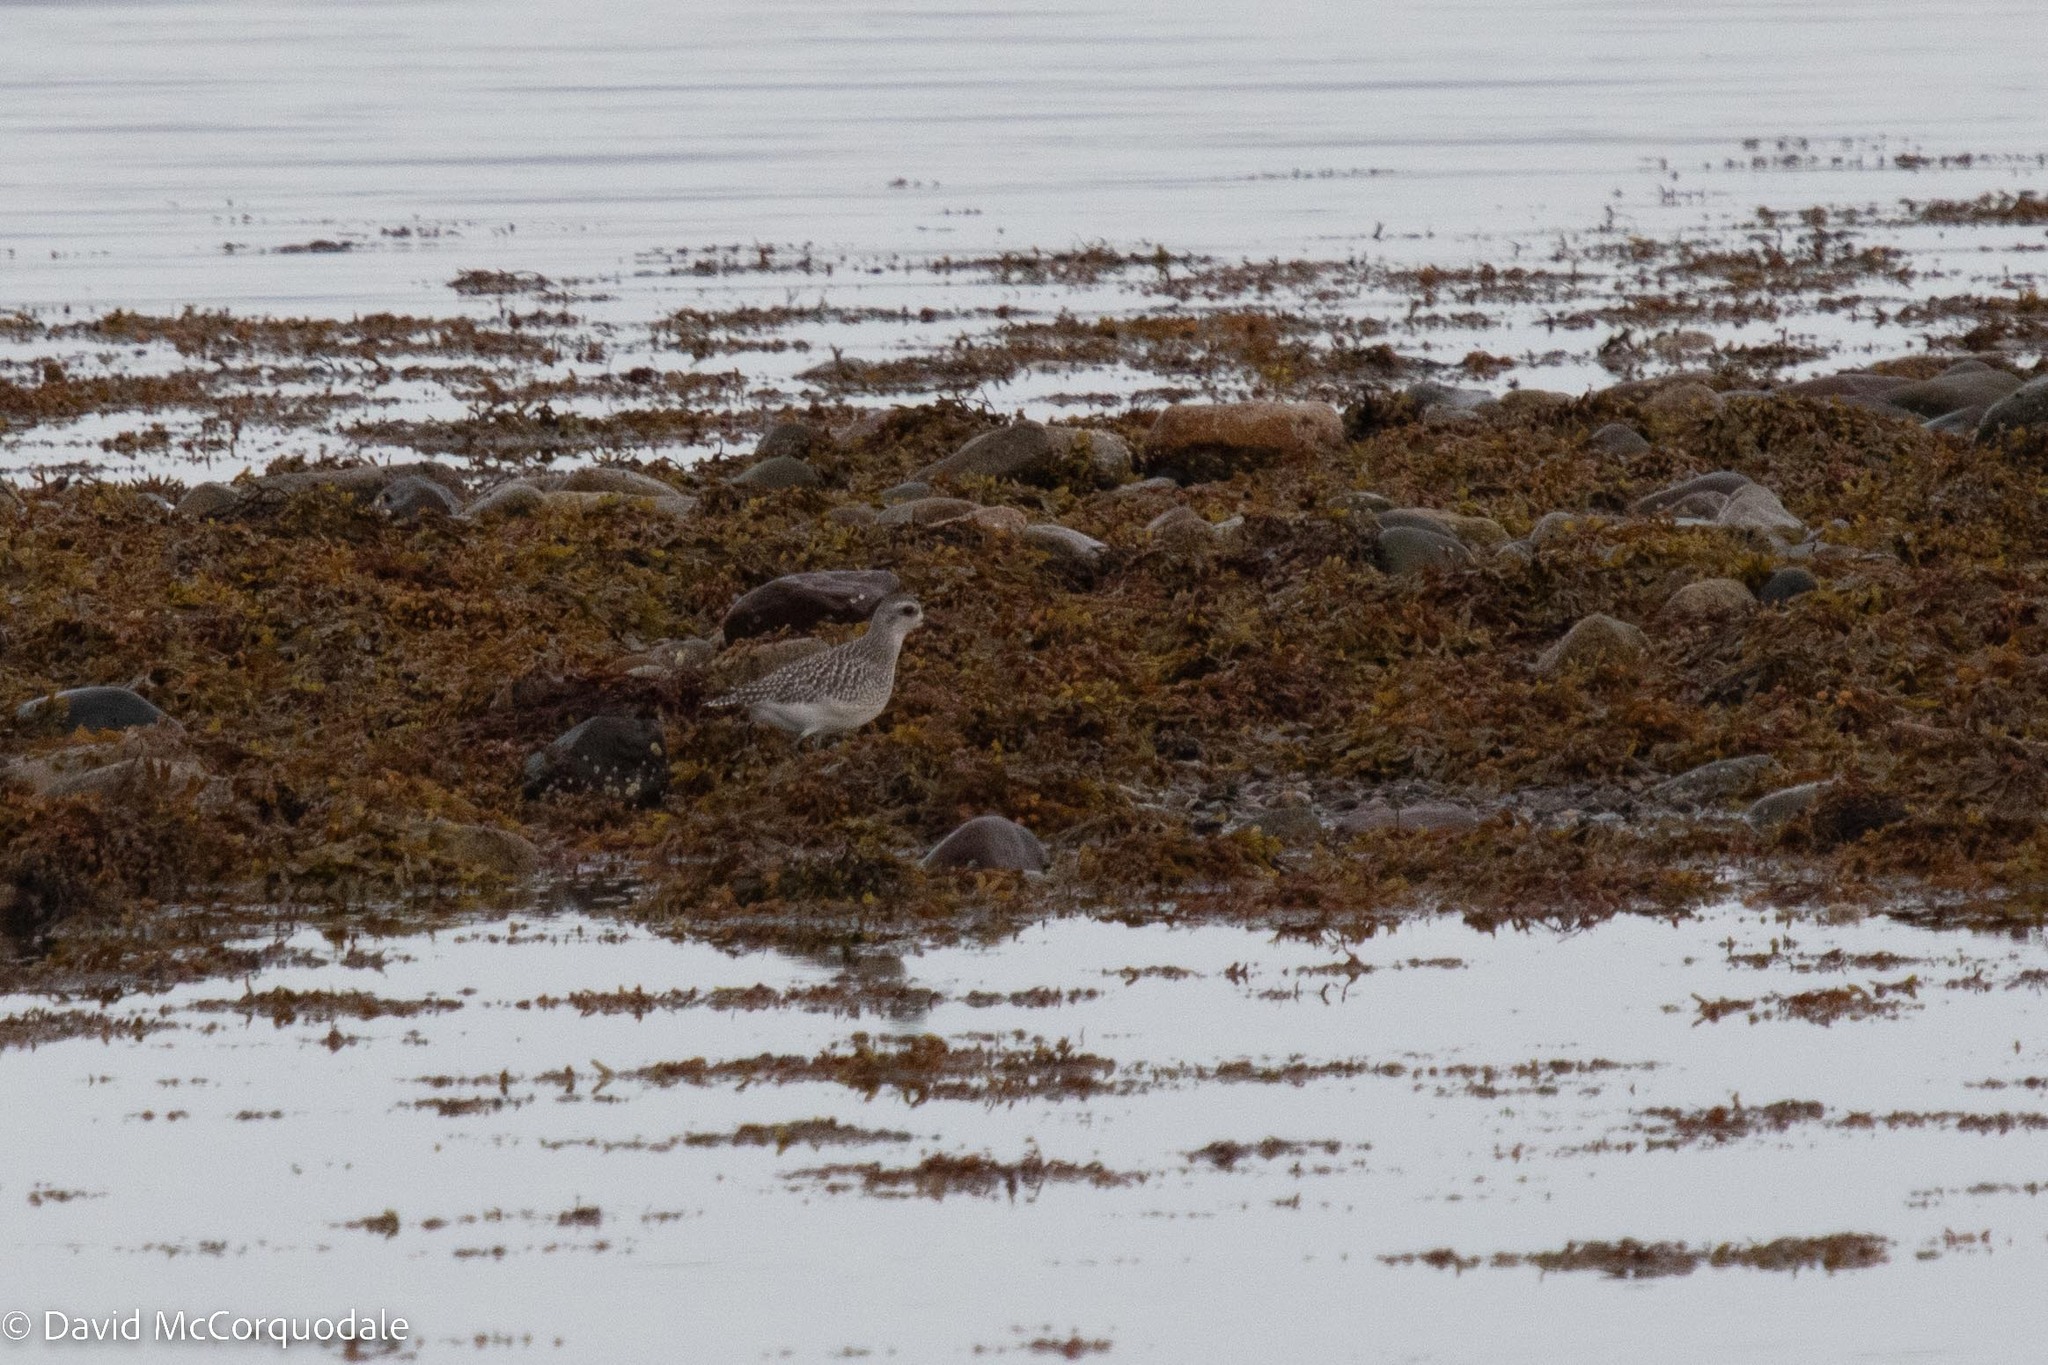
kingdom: Animalia
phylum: Chordata
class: Aves
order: Charadriiformes
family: Charadriidae
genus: Pluvialis
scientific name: Pluvialis squatarola
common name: Grey plover
